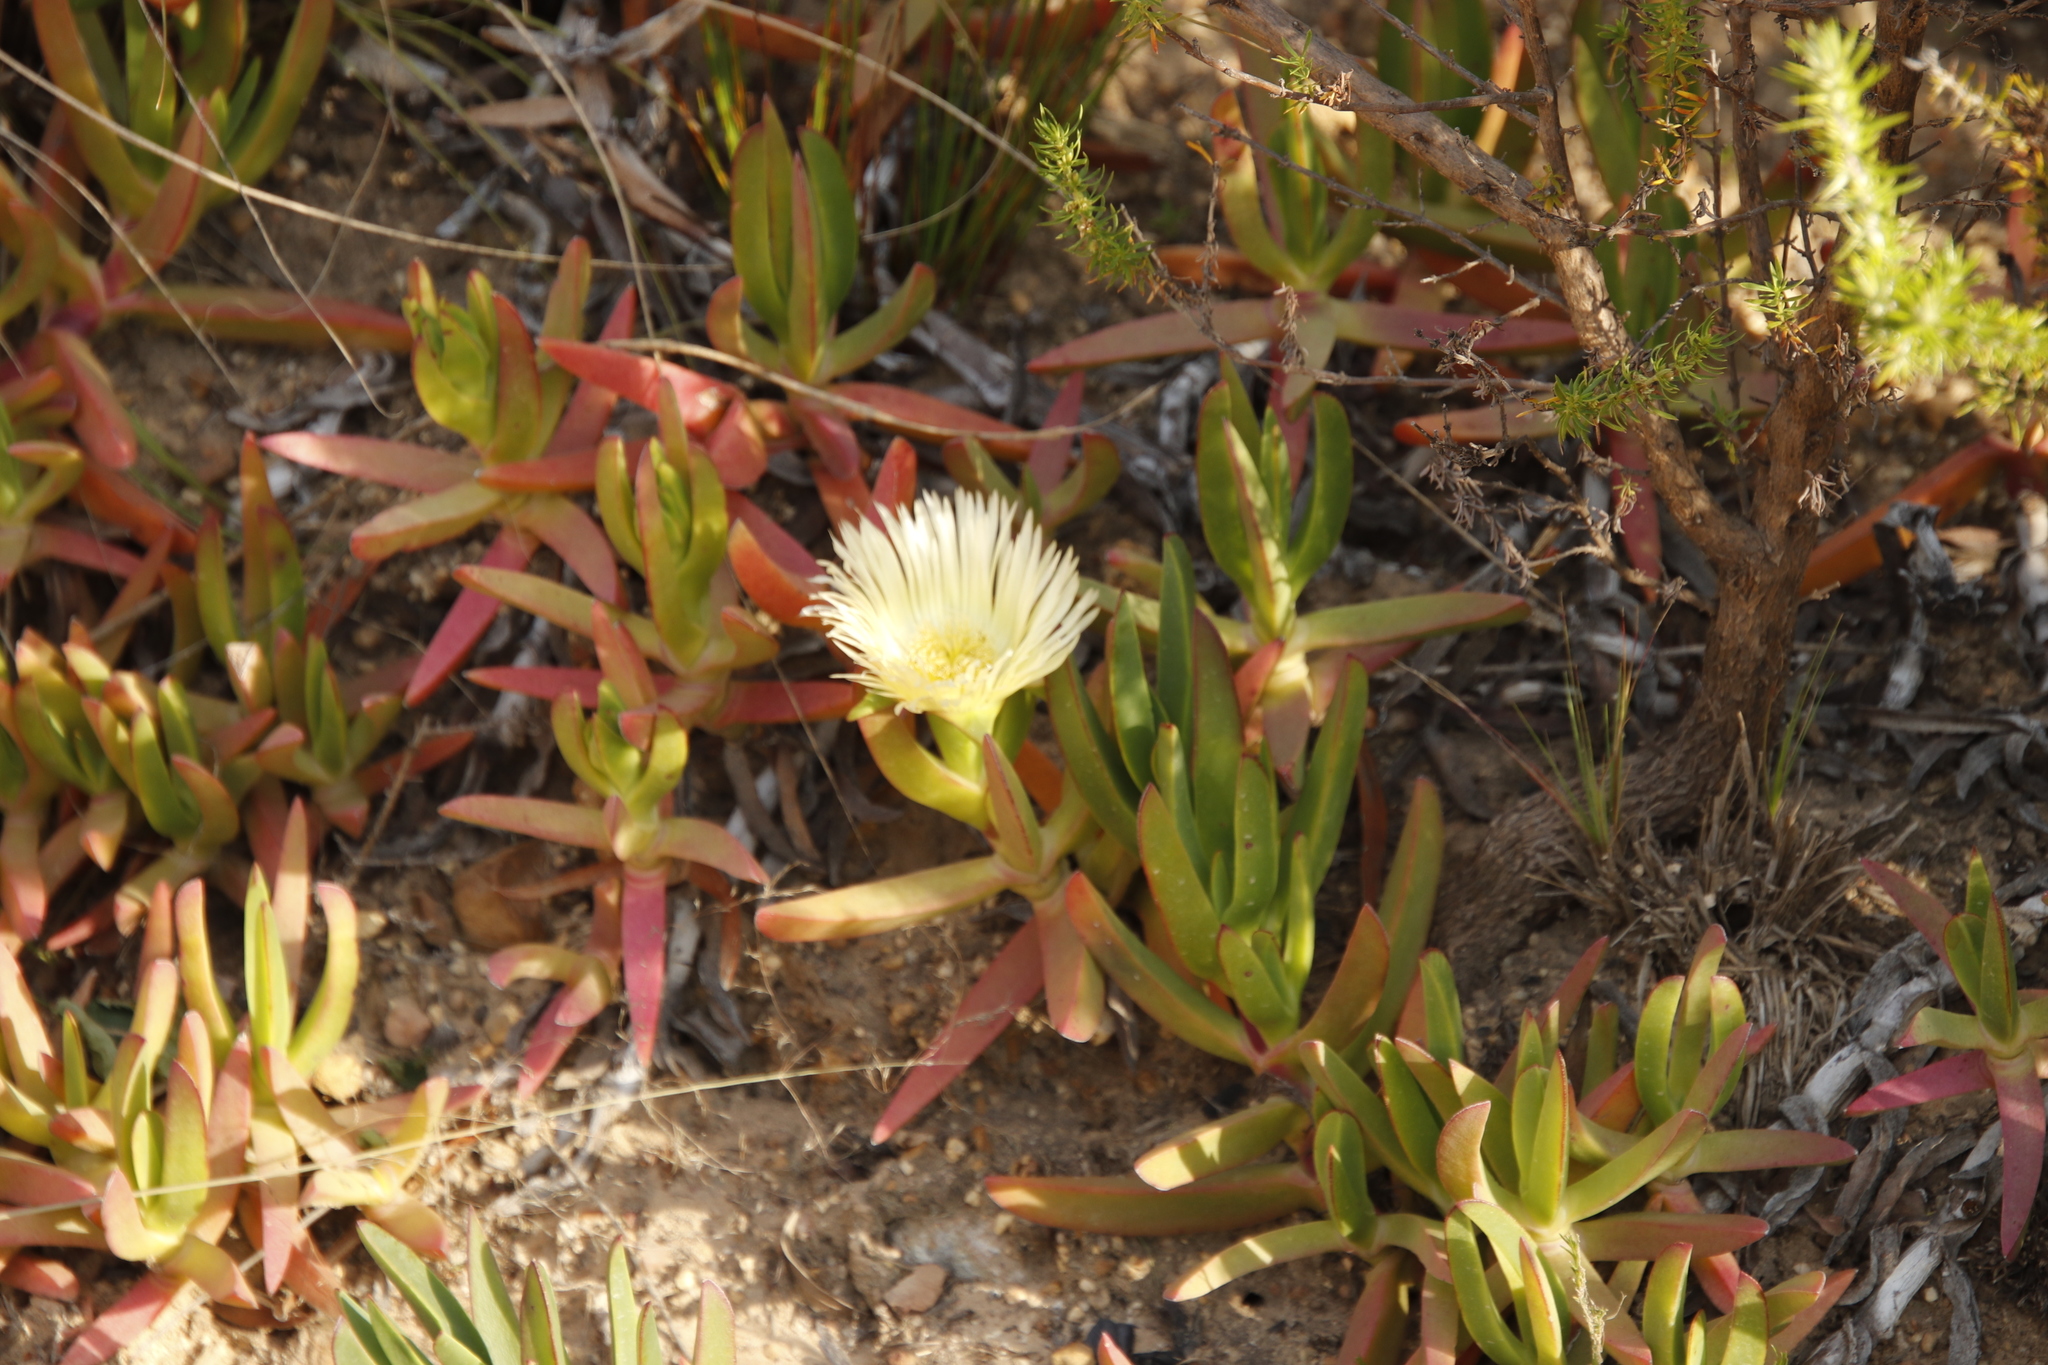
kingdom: Plantae
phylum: Tracheophyta
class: Magnoliopsida
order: Caryophyllales
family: Aizoaceae
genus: Carpobrotus
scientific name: Carpobrotus edulis
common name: Hottentot-fig
